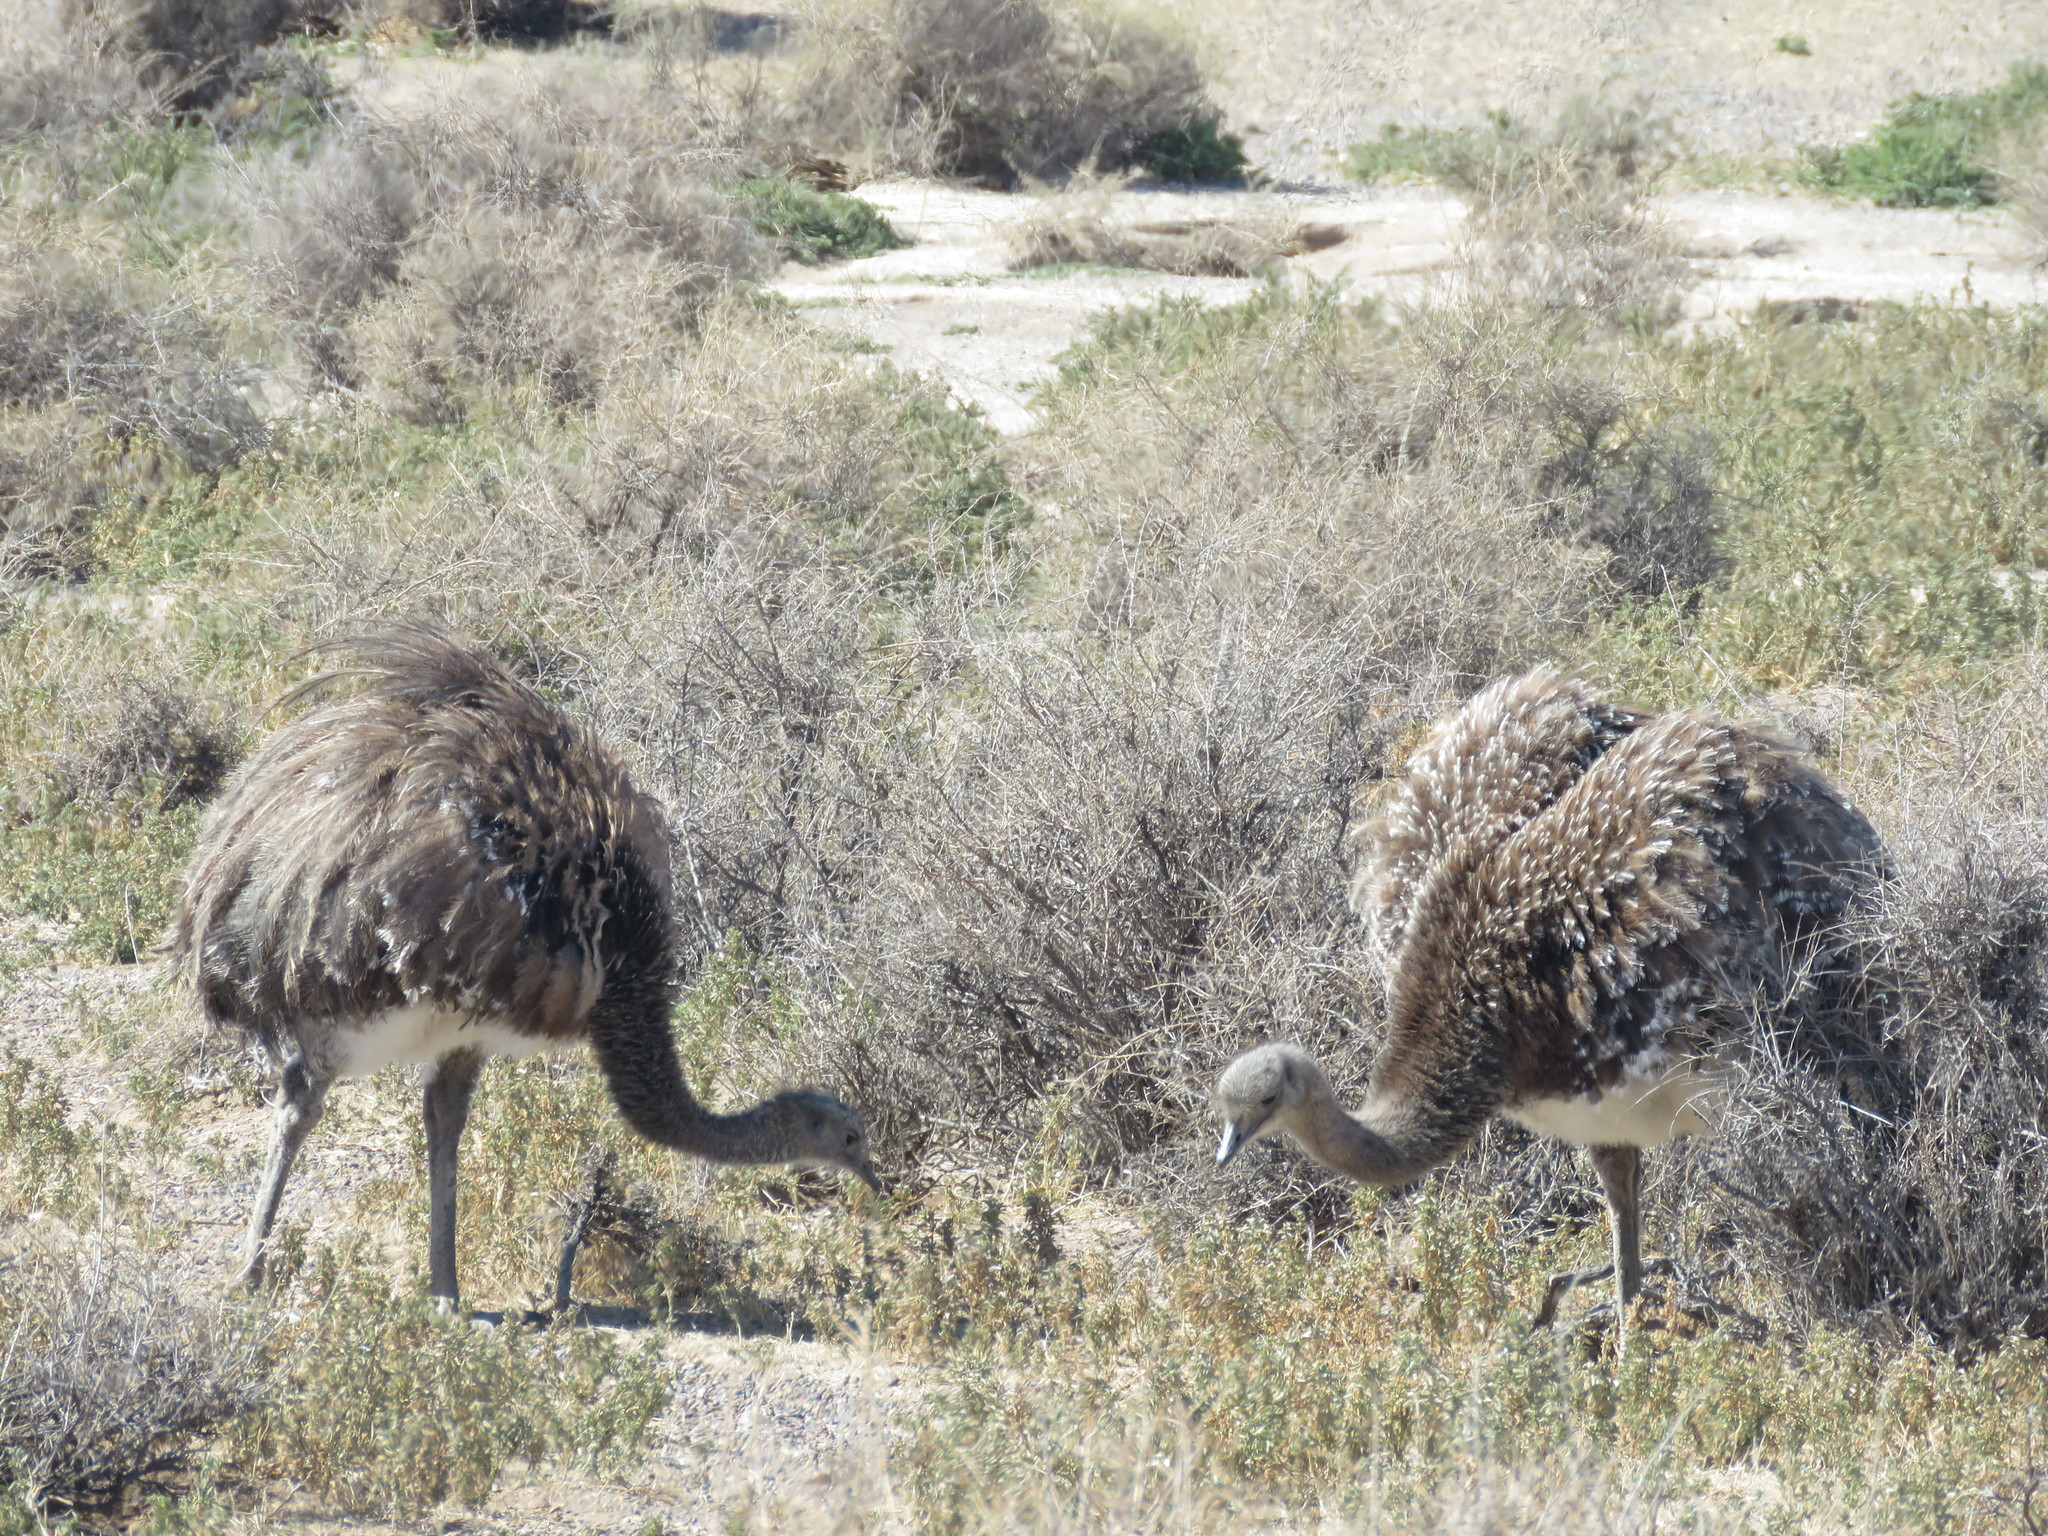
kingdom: Animalia
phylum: Chordata
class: Aves
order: Rheiformes
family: Rheidae
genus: Rhea
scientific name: Rhea pennata
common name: Lesser rhea
